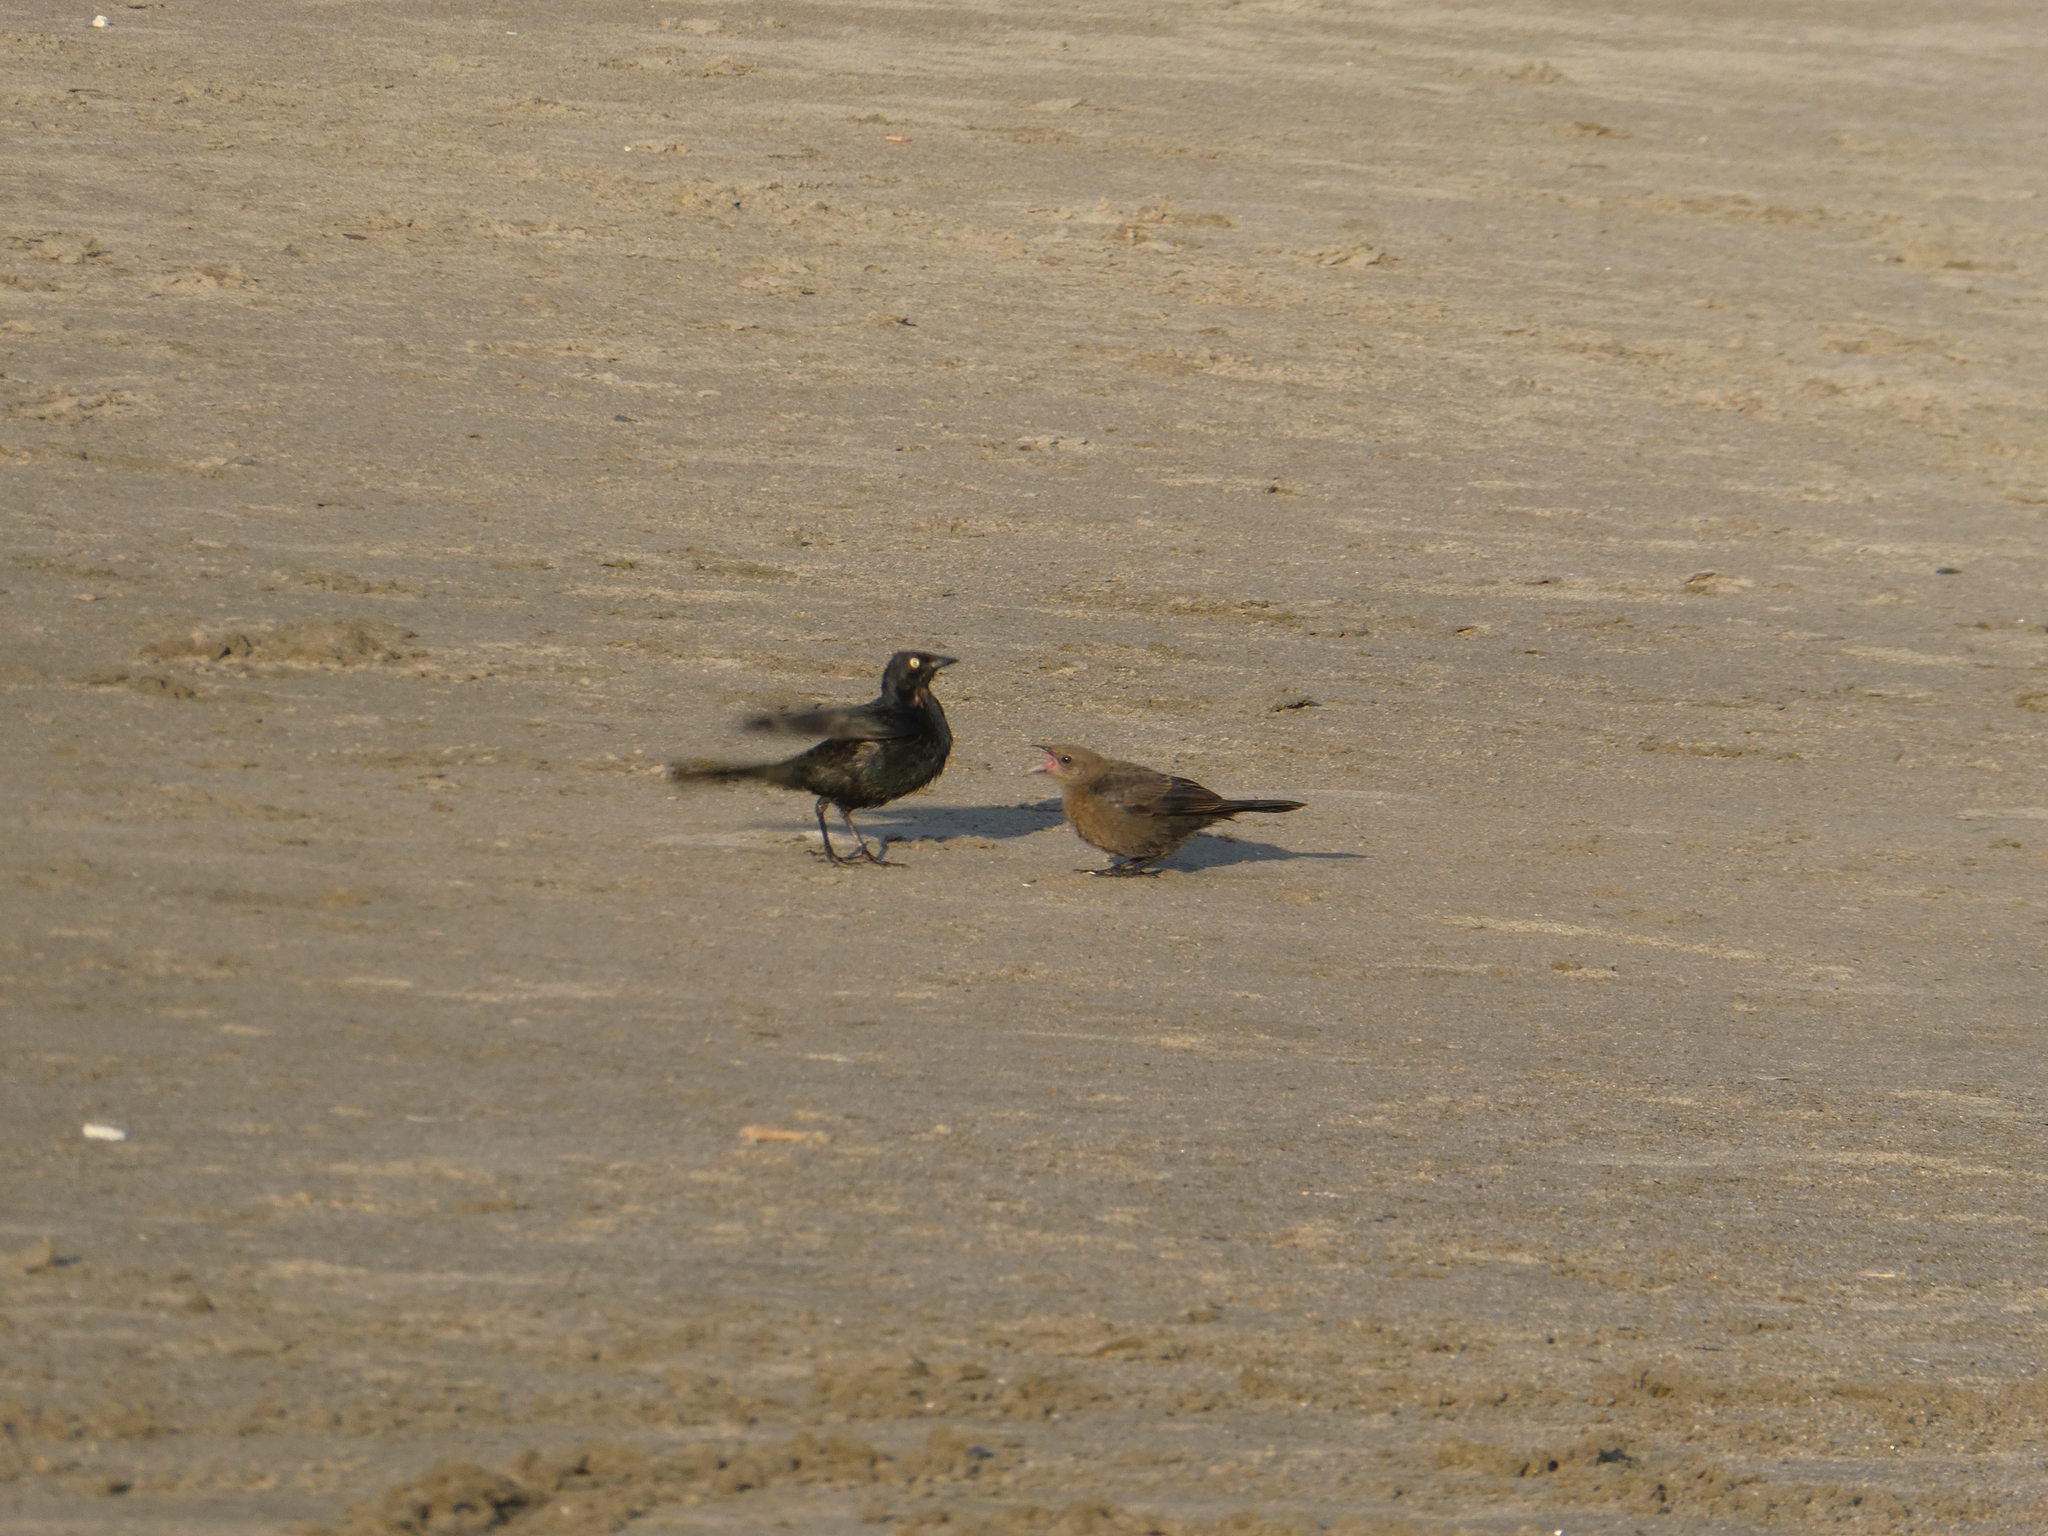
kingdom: Animalia
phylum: Chordata
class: Aves
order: Passeriformes
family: Icteridae
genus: Euphagus
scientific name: Euphagus cyanocephalus
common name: Brewer's blackbird
